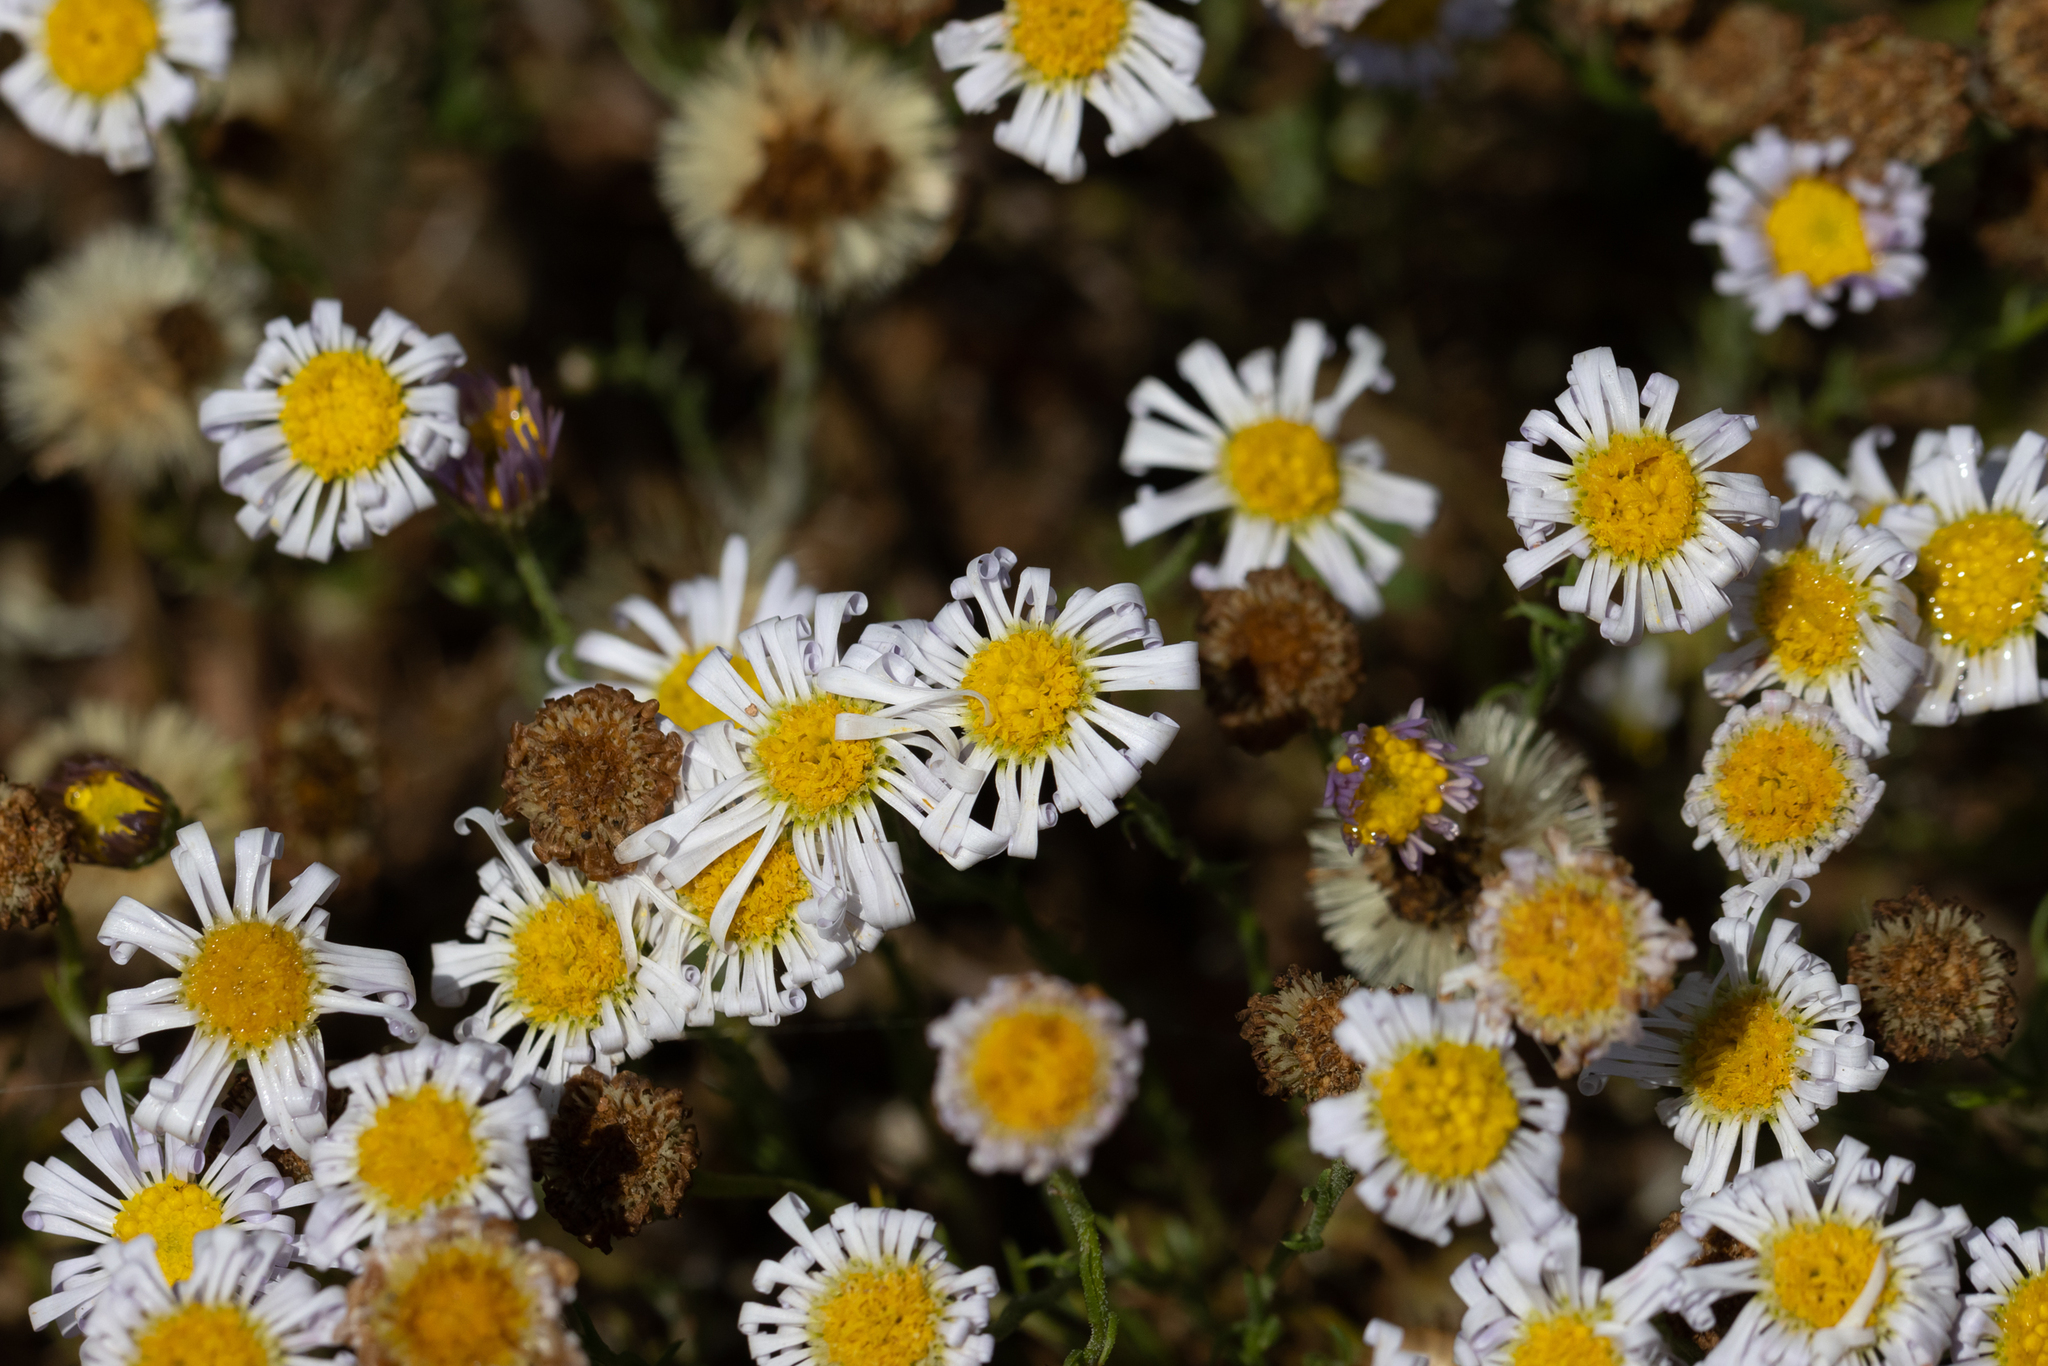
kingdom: Plantae
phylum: Tracheophyta
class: Magnoliopsida
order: Asterales
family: Asteraceae
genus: Minuria
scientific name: Minuria leptophylla
